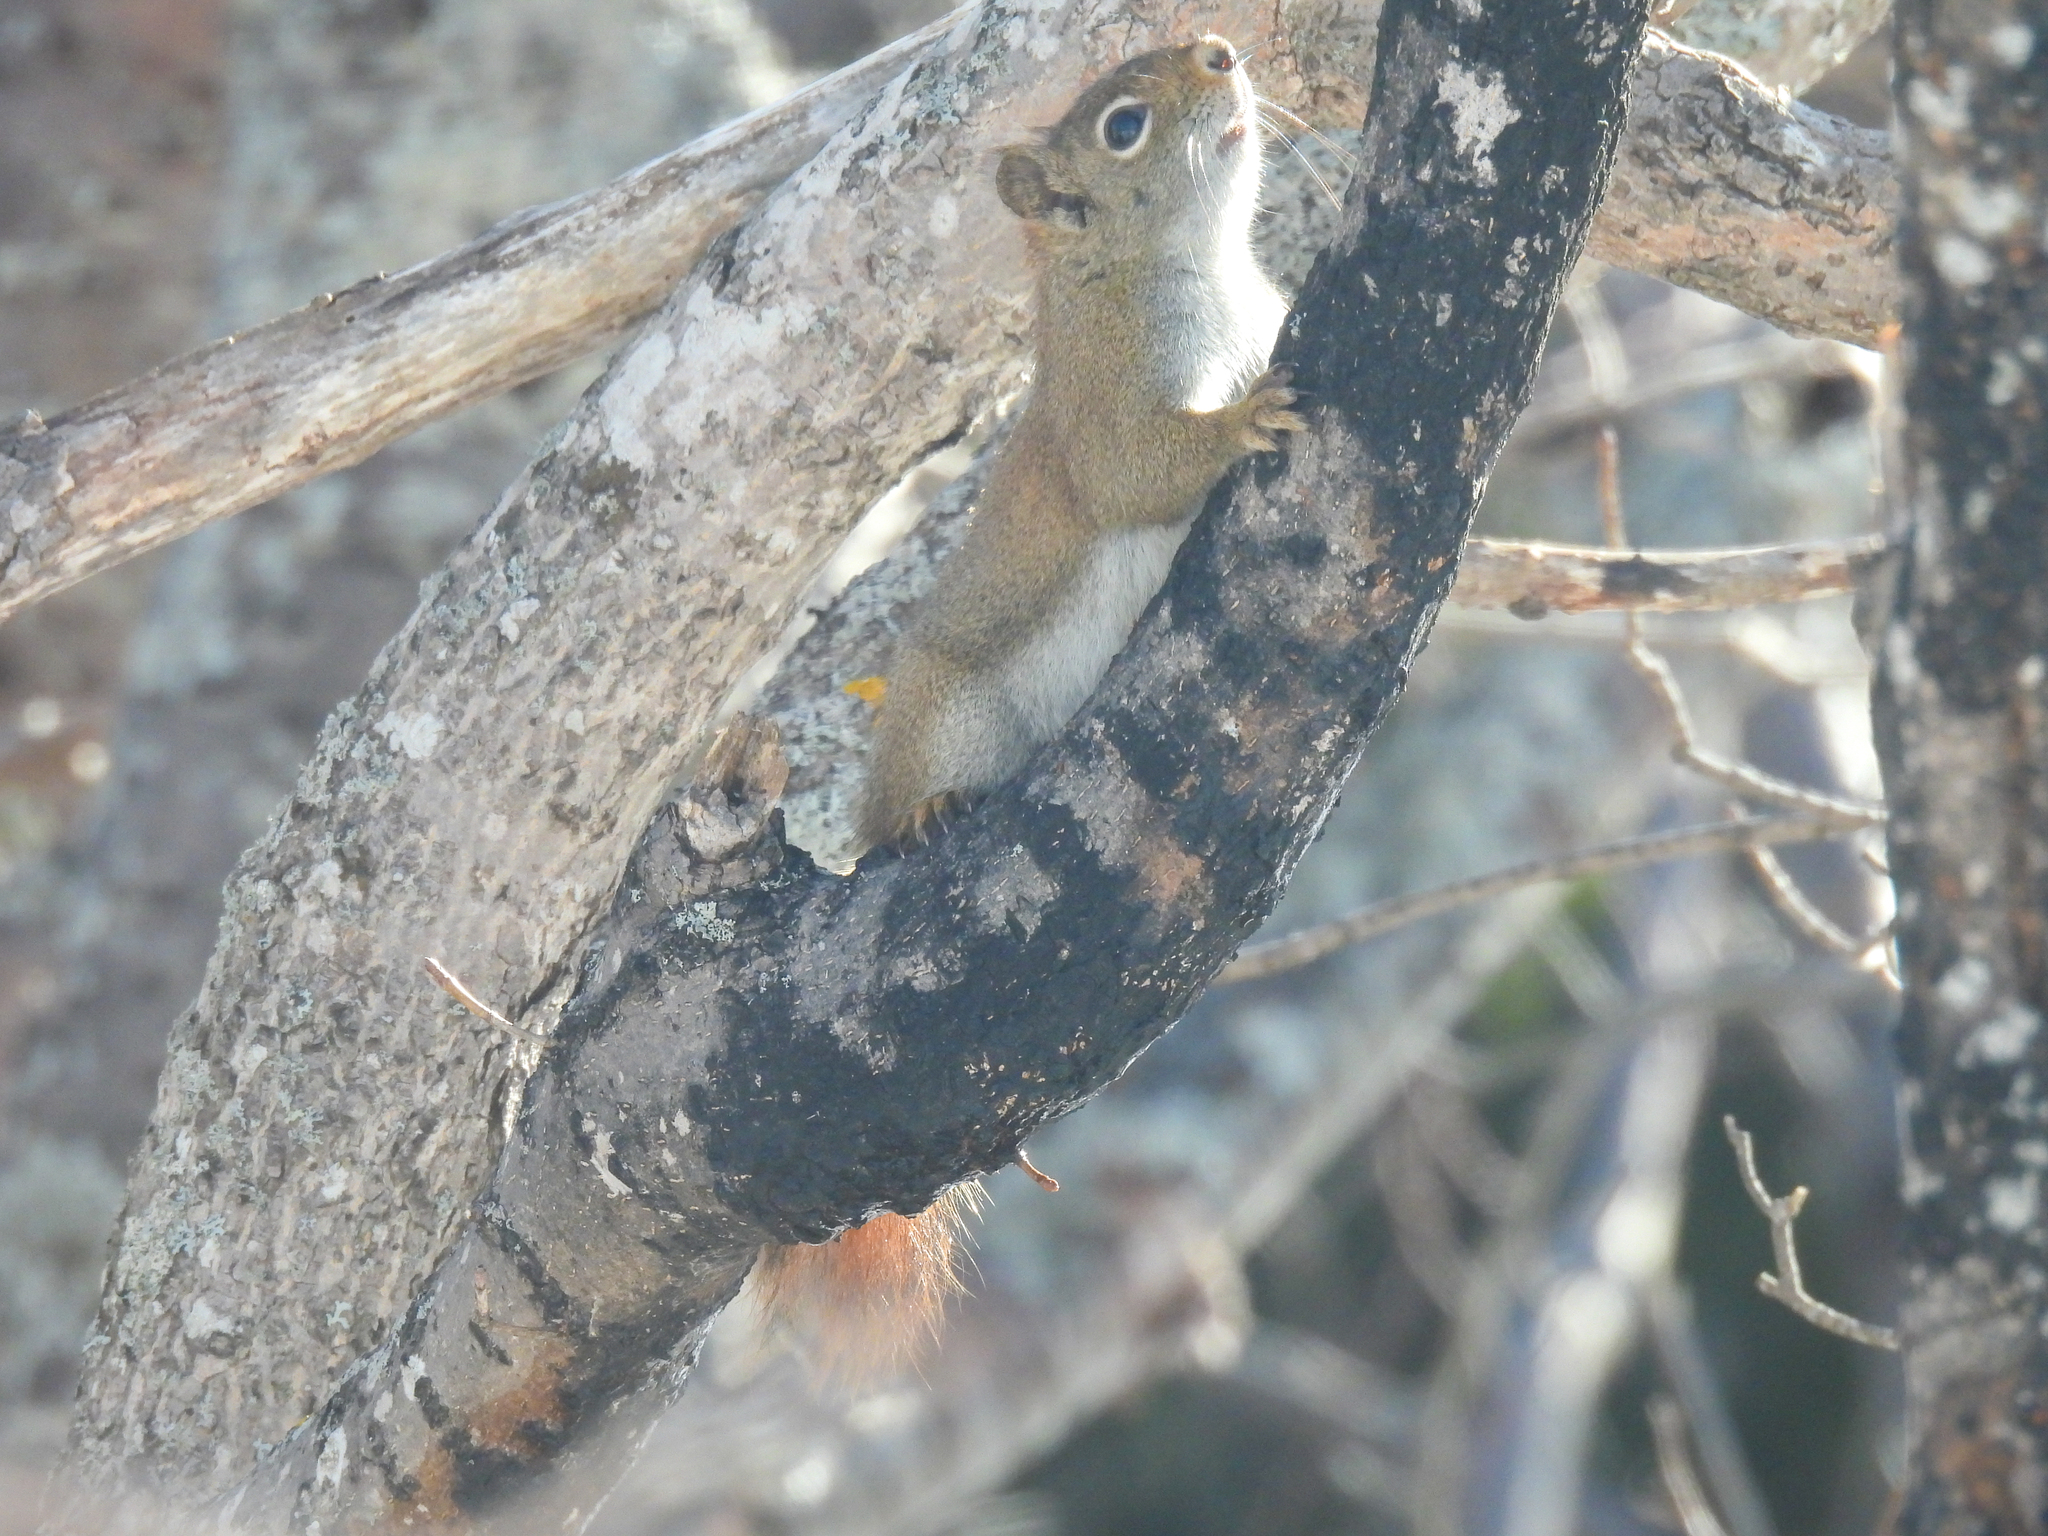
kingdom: Animalia
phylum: Chordata
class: Mammalia
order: Rodentia
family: Sciuridae
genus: Tamiasciurus
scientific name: Tamiasciurus hudsonicus
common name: Red squirrel
